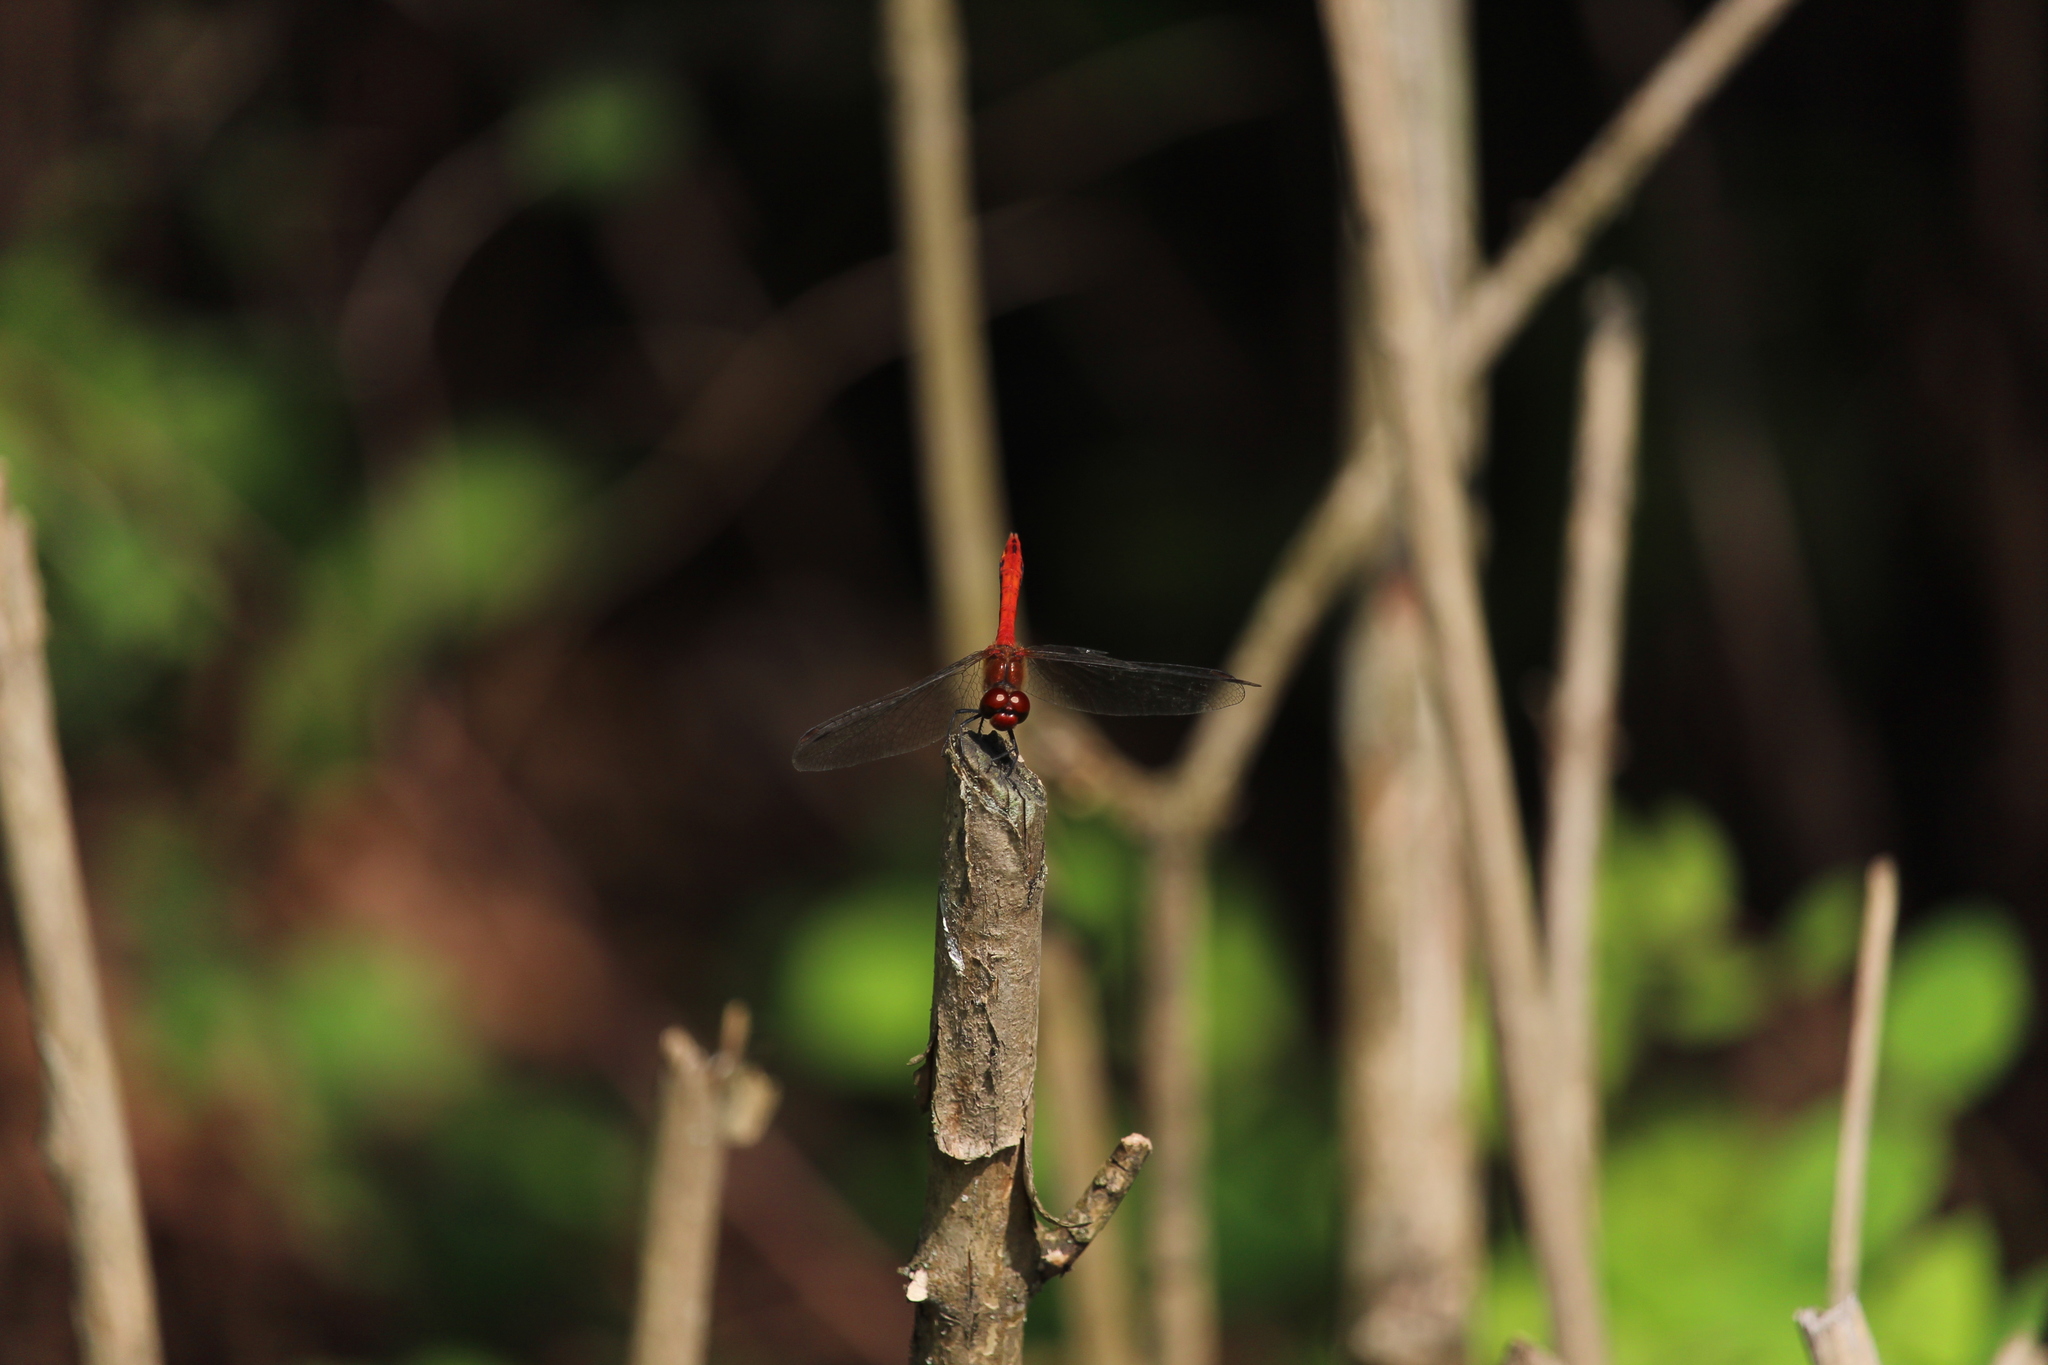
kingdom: Animalia
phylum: Arthropoda
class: Insecta
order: Odonata
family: Libellulidae
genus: Sympetrum
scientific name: Sympetrum sanguineum
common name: Ruddy darter
